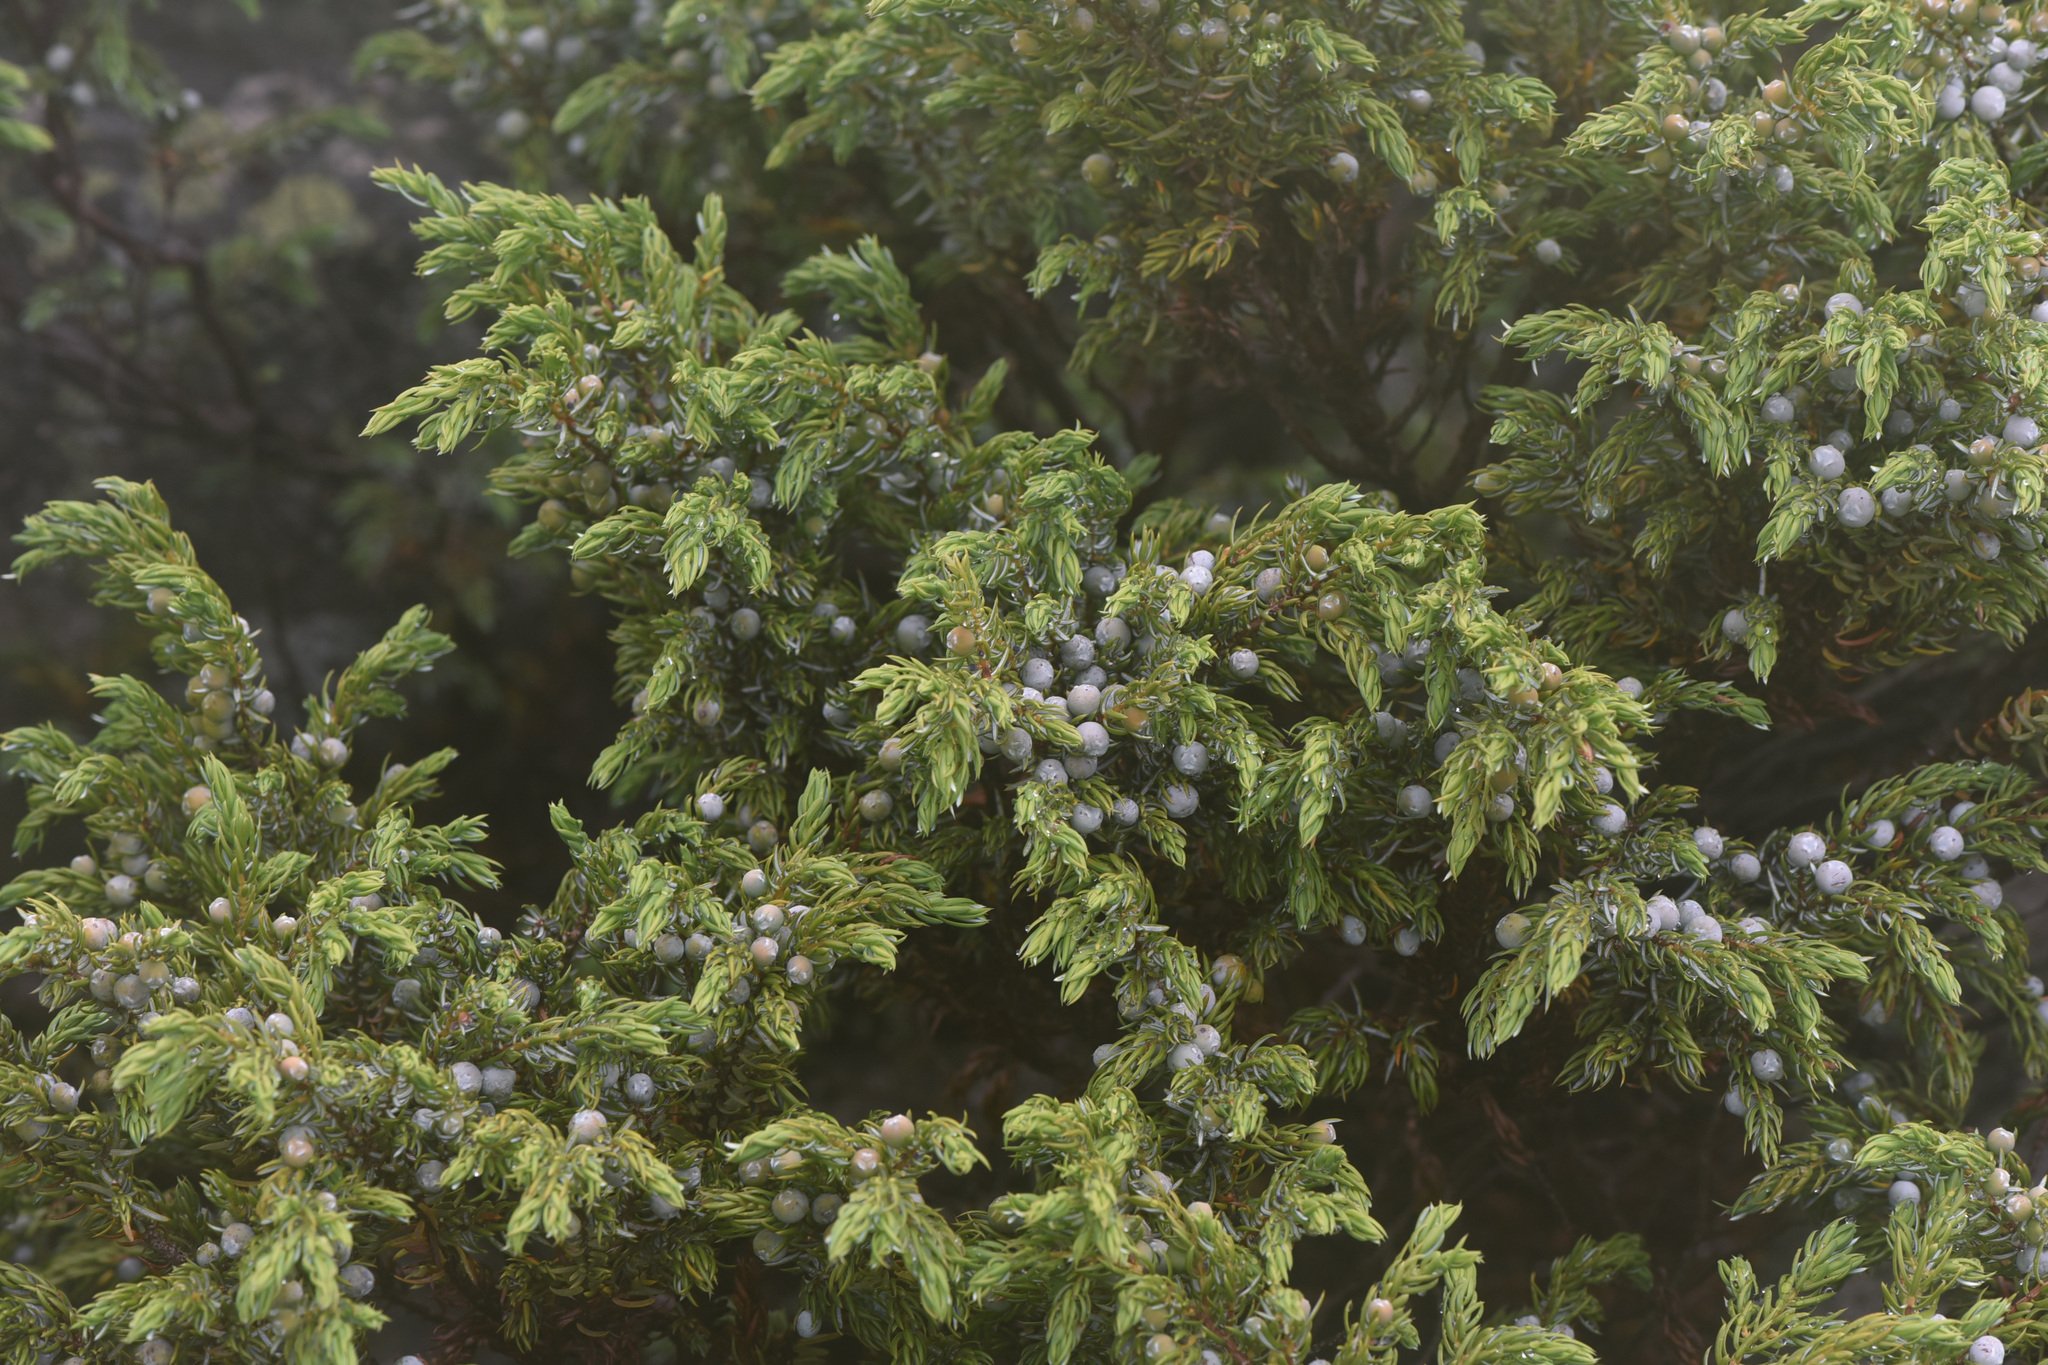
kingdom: Plantae
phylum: Tracheophyta
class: Pinopsida
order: Pinales
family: Cupressaceae
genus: Juniperus
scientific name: Juniperus communis
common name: Common juniper
